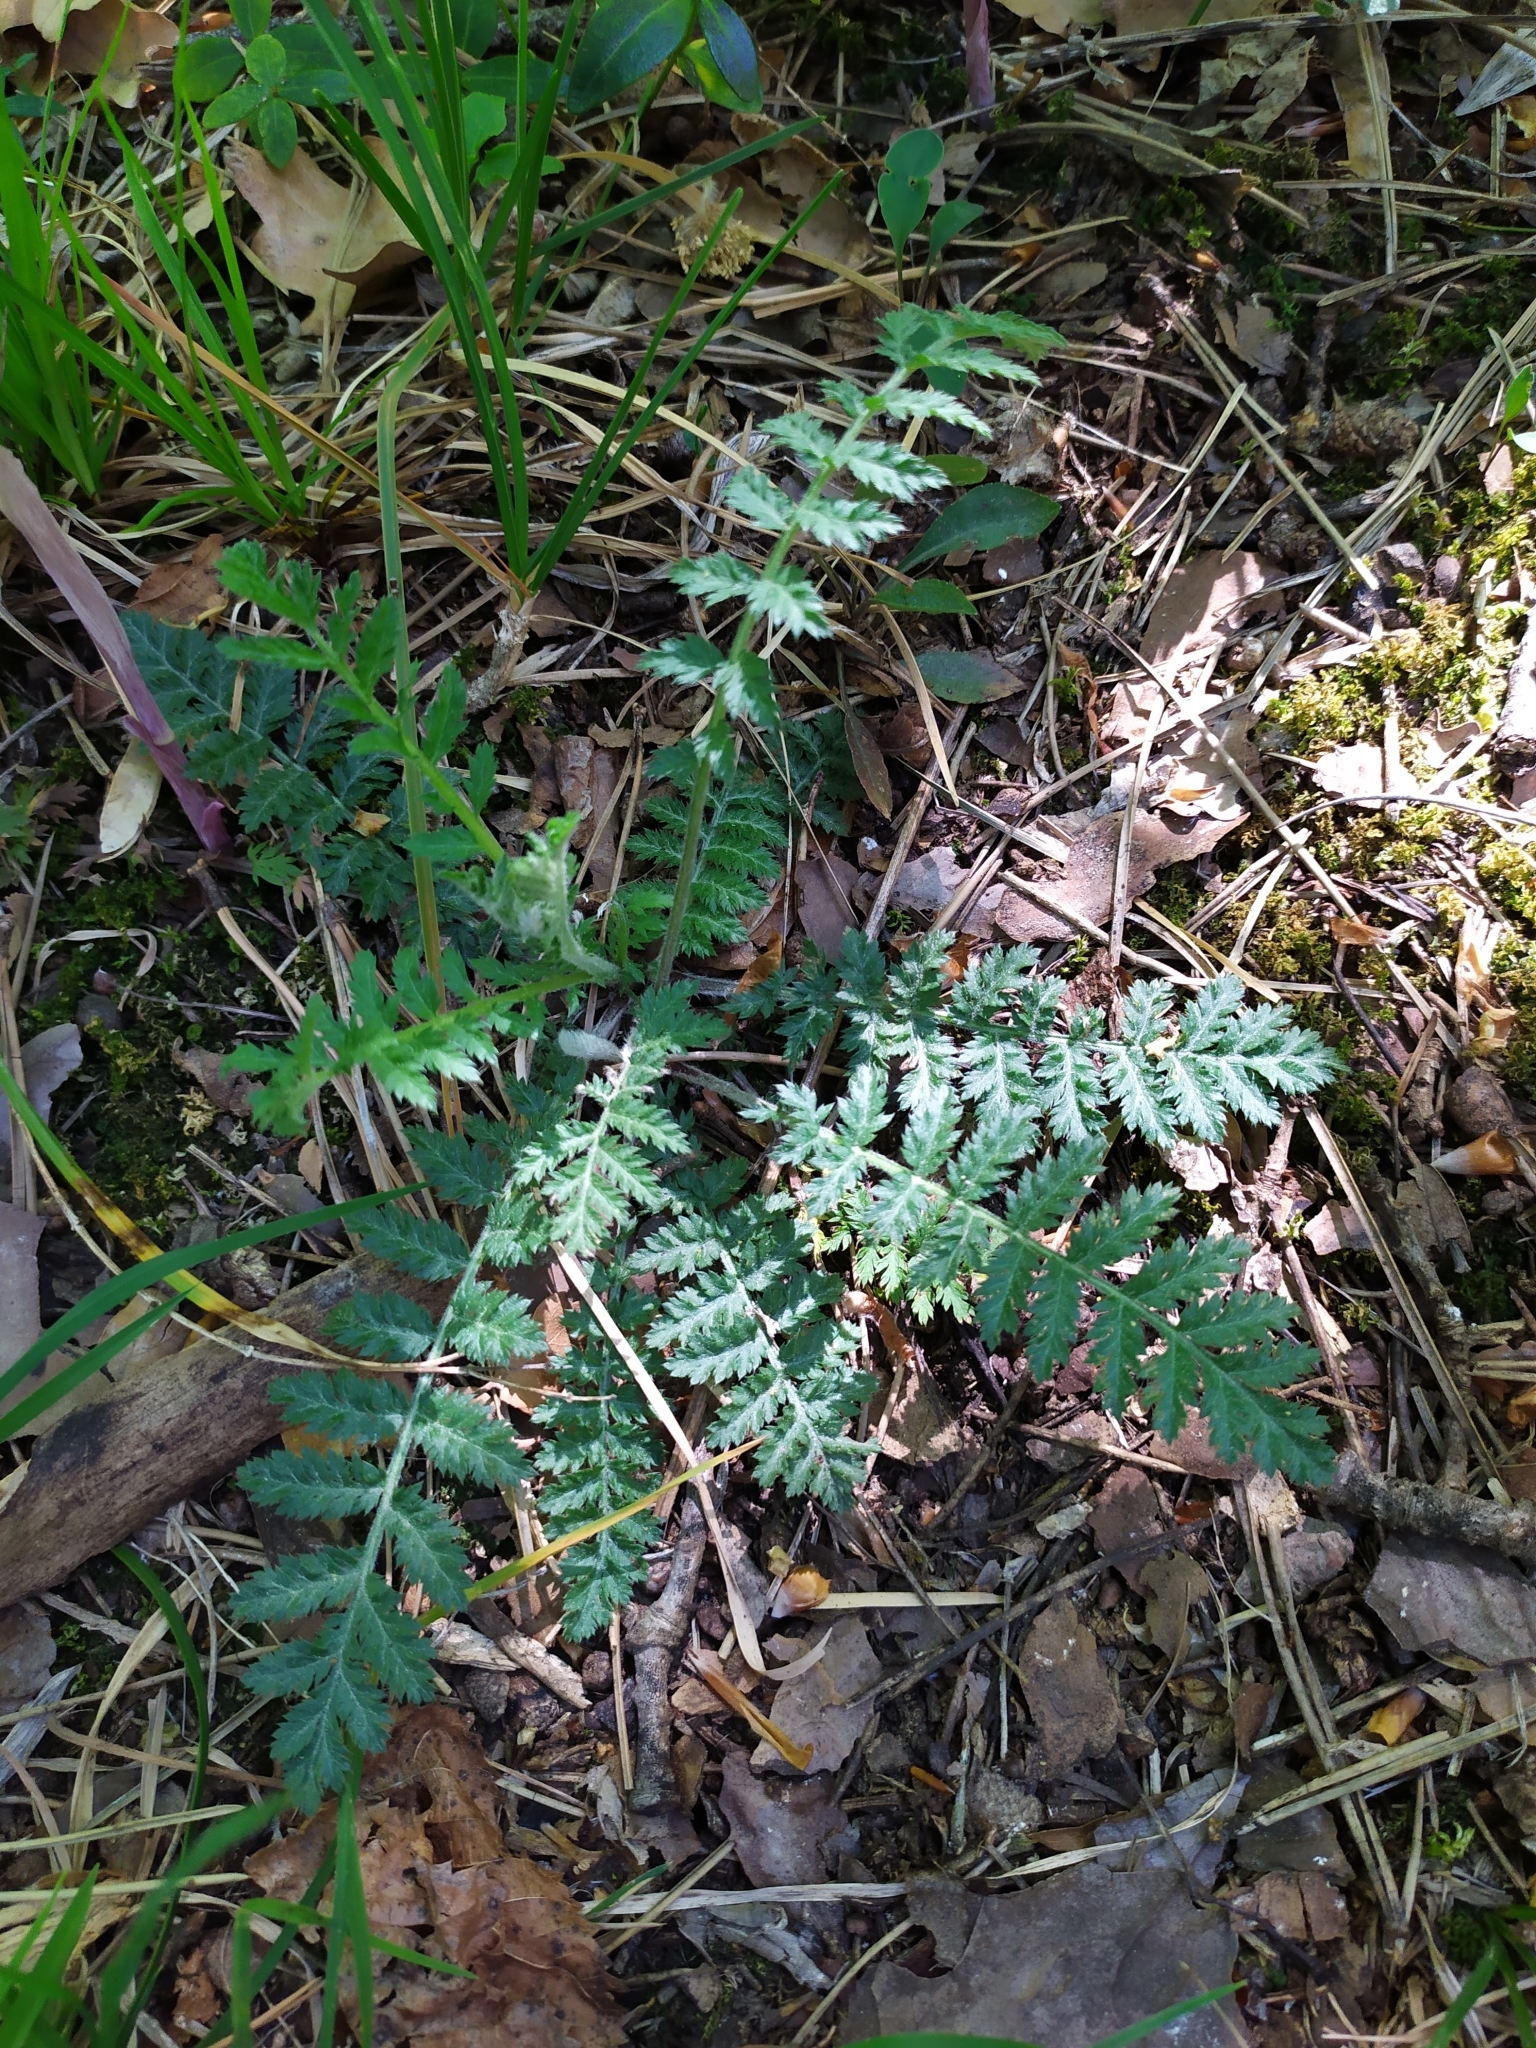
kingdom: Plantae
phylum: Tracheophyta
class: Magnoliopsida
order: Asterales
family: Asteraceae
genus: Tanacetum
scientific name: Tanacetum corymbosum
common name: Scentless feverfew
